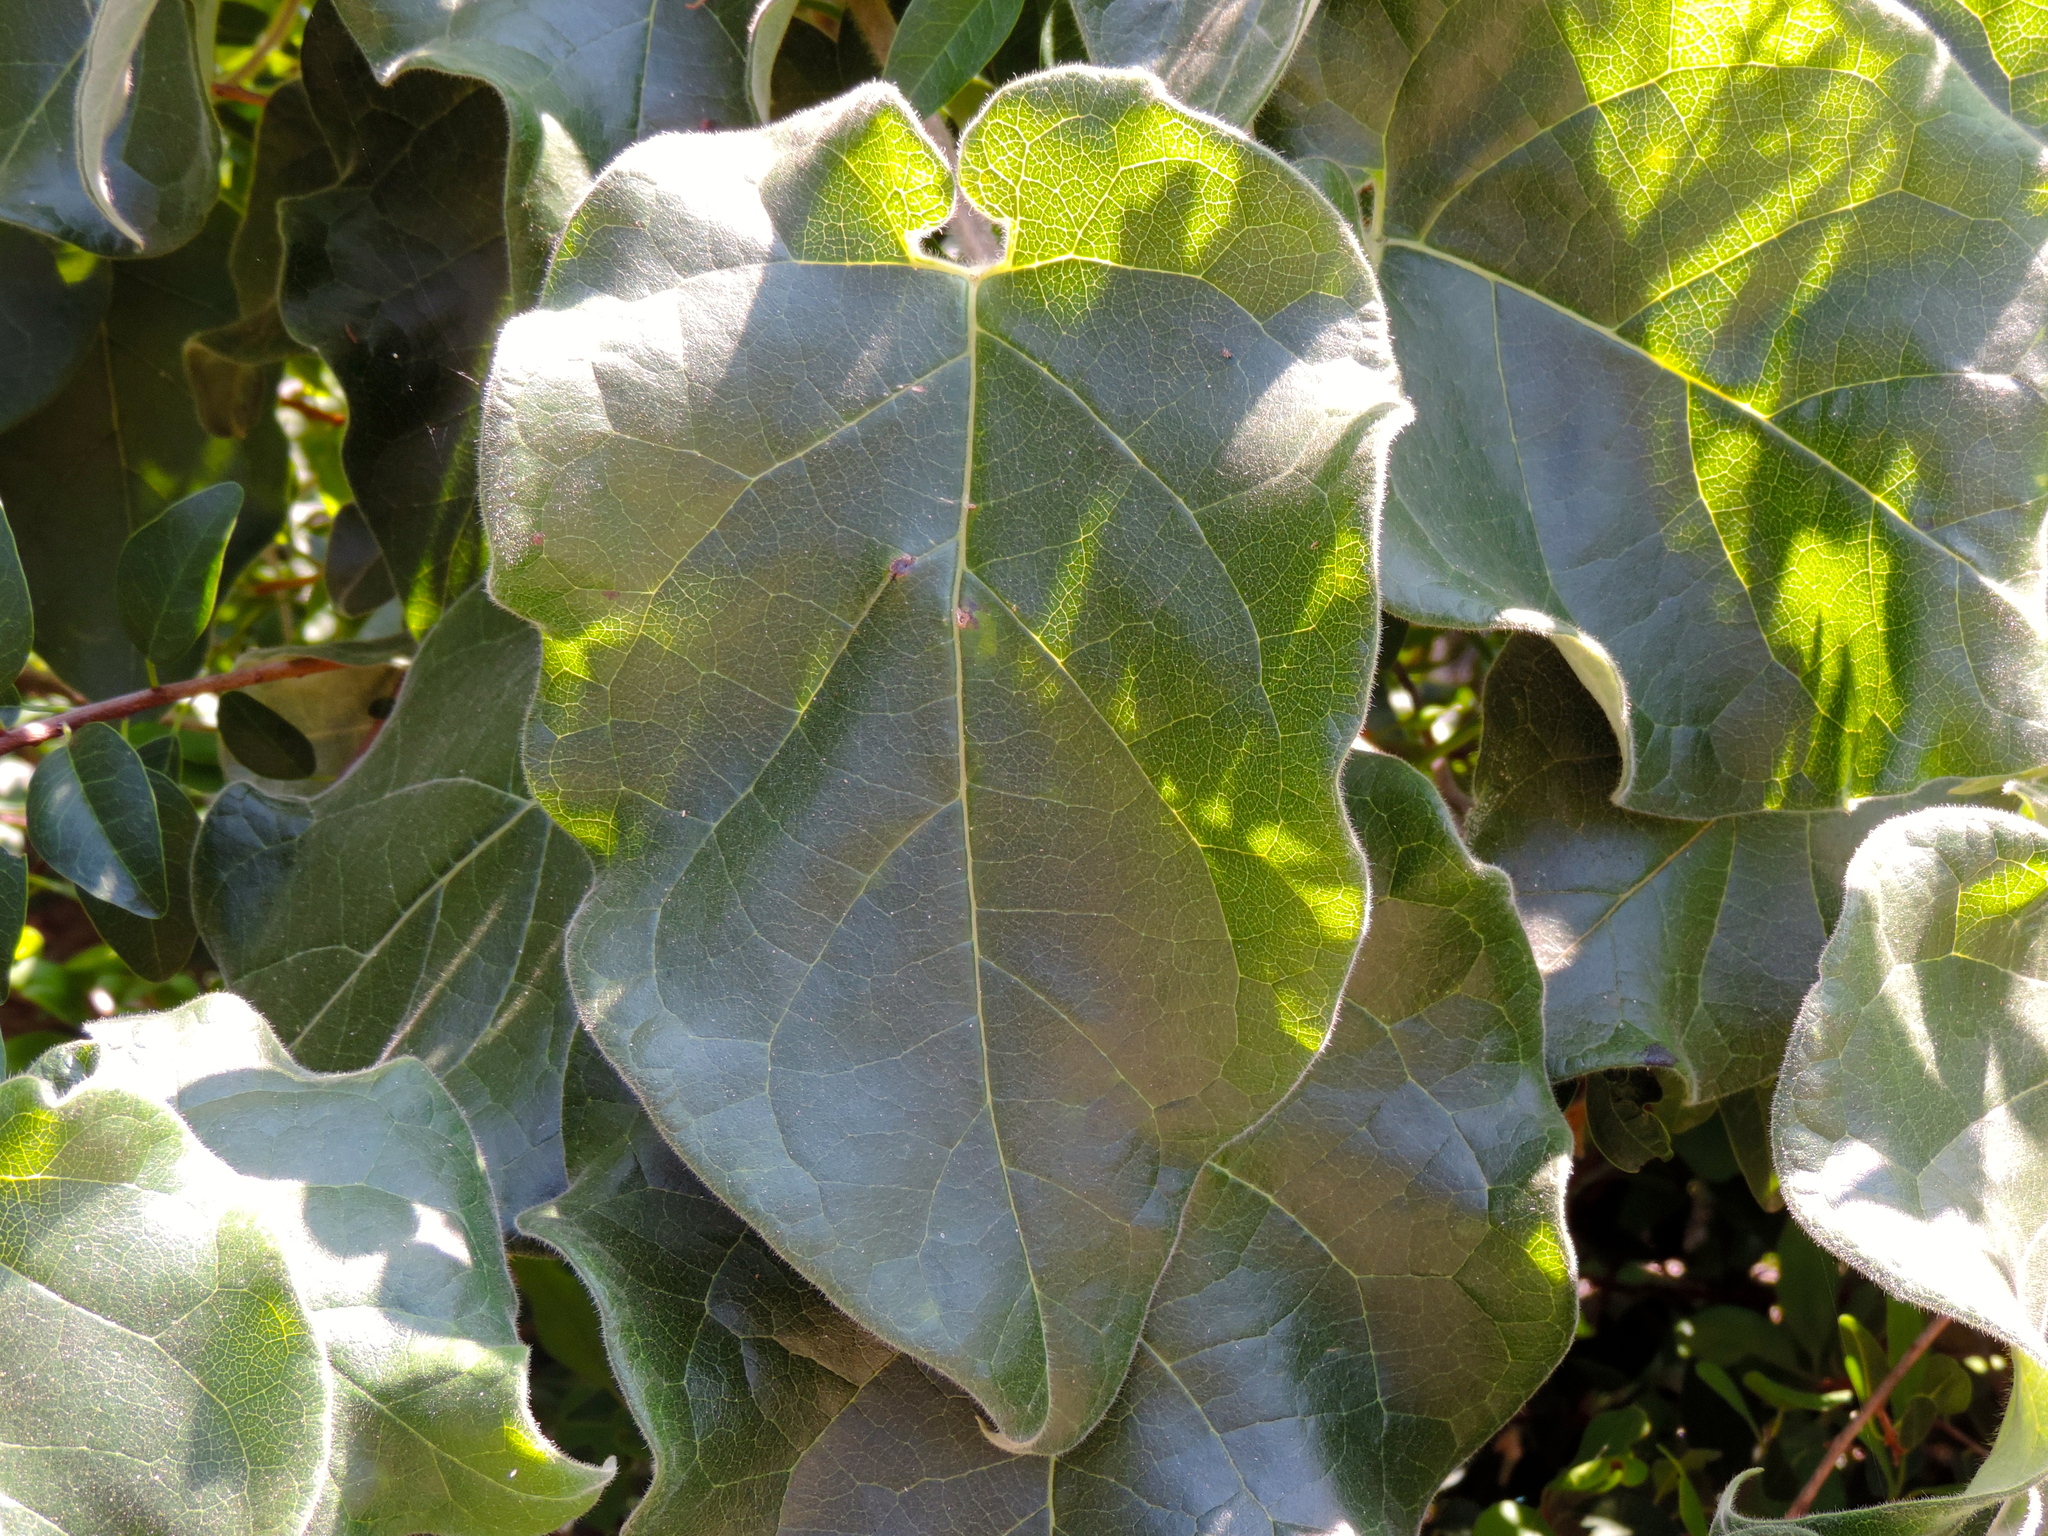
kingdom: Plantae
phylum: Tracheophyta
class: Magnoliopsida
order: Gentianales
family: Apocynaceae
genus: Ruehssia
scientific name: Ruehssia lanata
